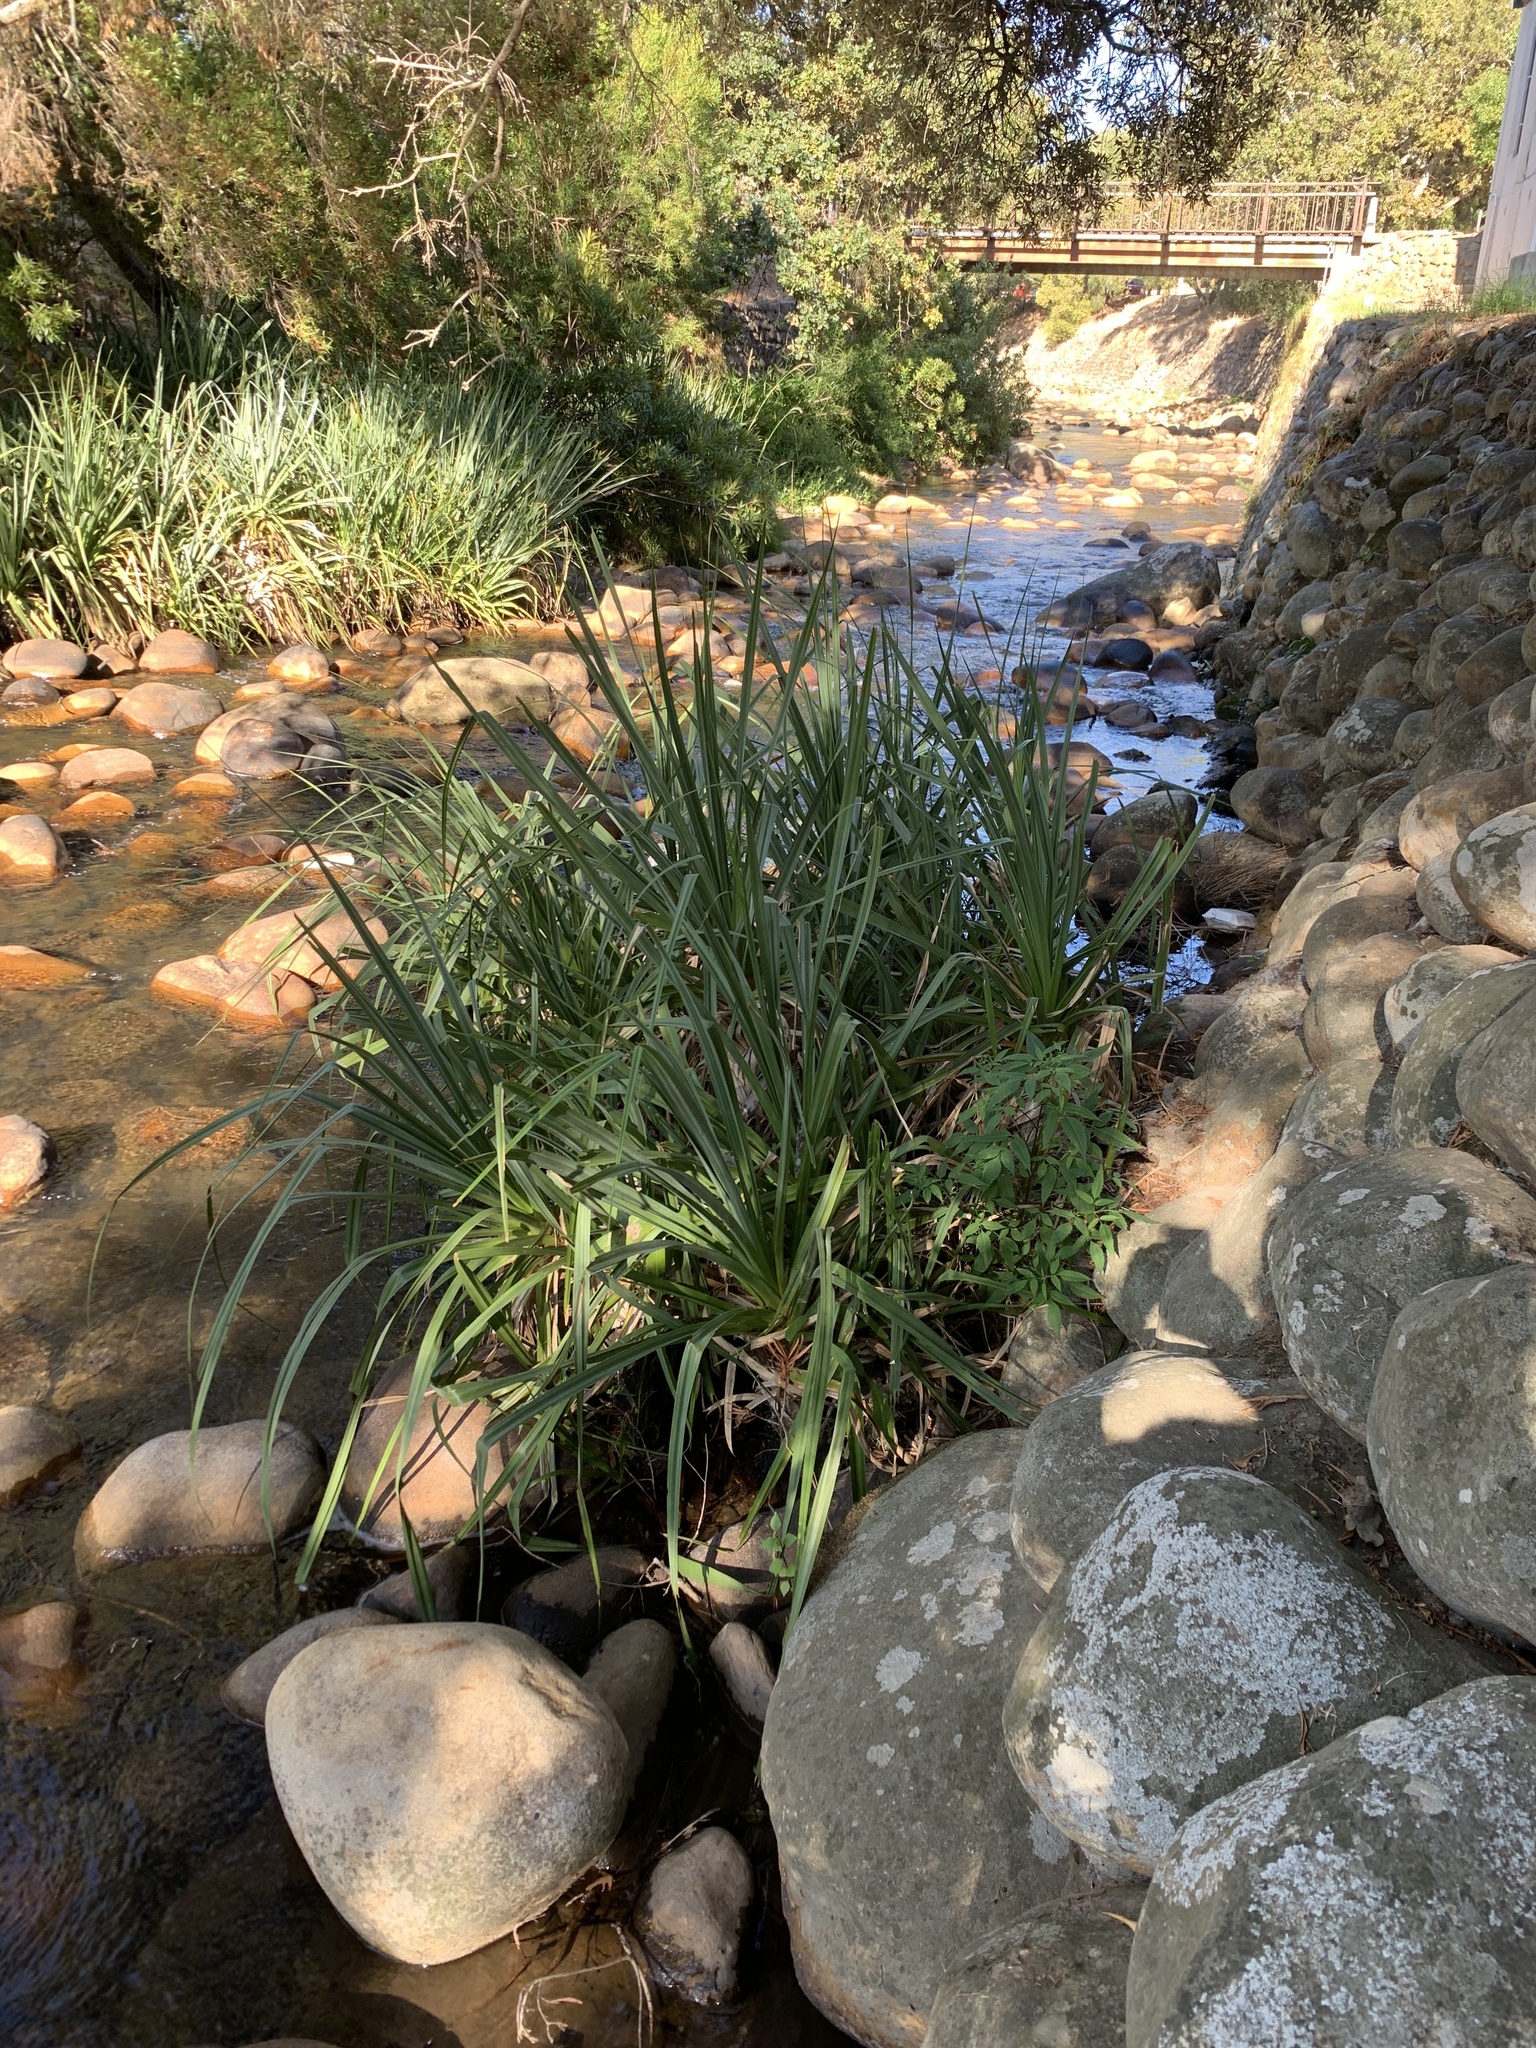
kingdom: Plantae
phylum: Tracheophyta
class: Liliopsida
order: Poales
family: Thurniaceae
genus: Prionium
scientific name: Prionium serratum
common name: Palmiet
